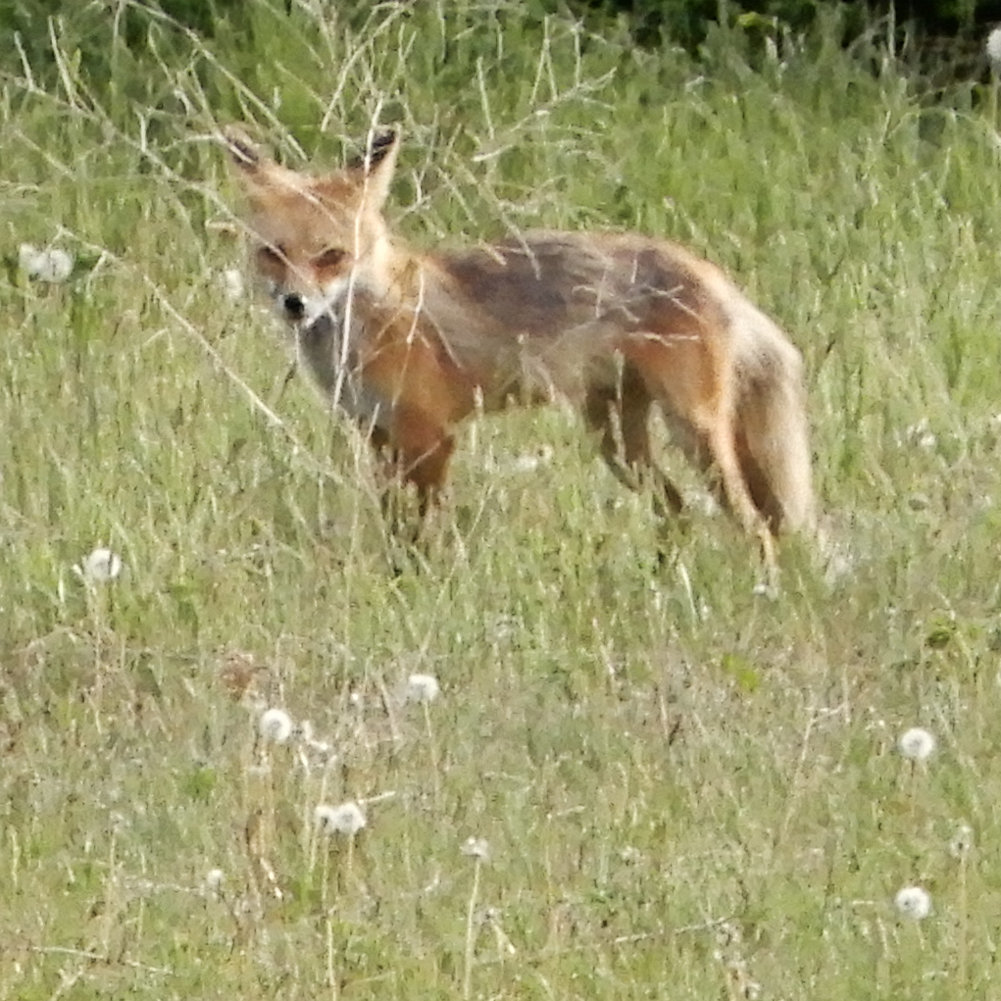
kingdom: Animalia
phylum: Chordata
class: Mammalia
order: Carnivora
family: Canidae
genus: Vulpes
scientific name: Vulpes vulpes
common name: Red fox
